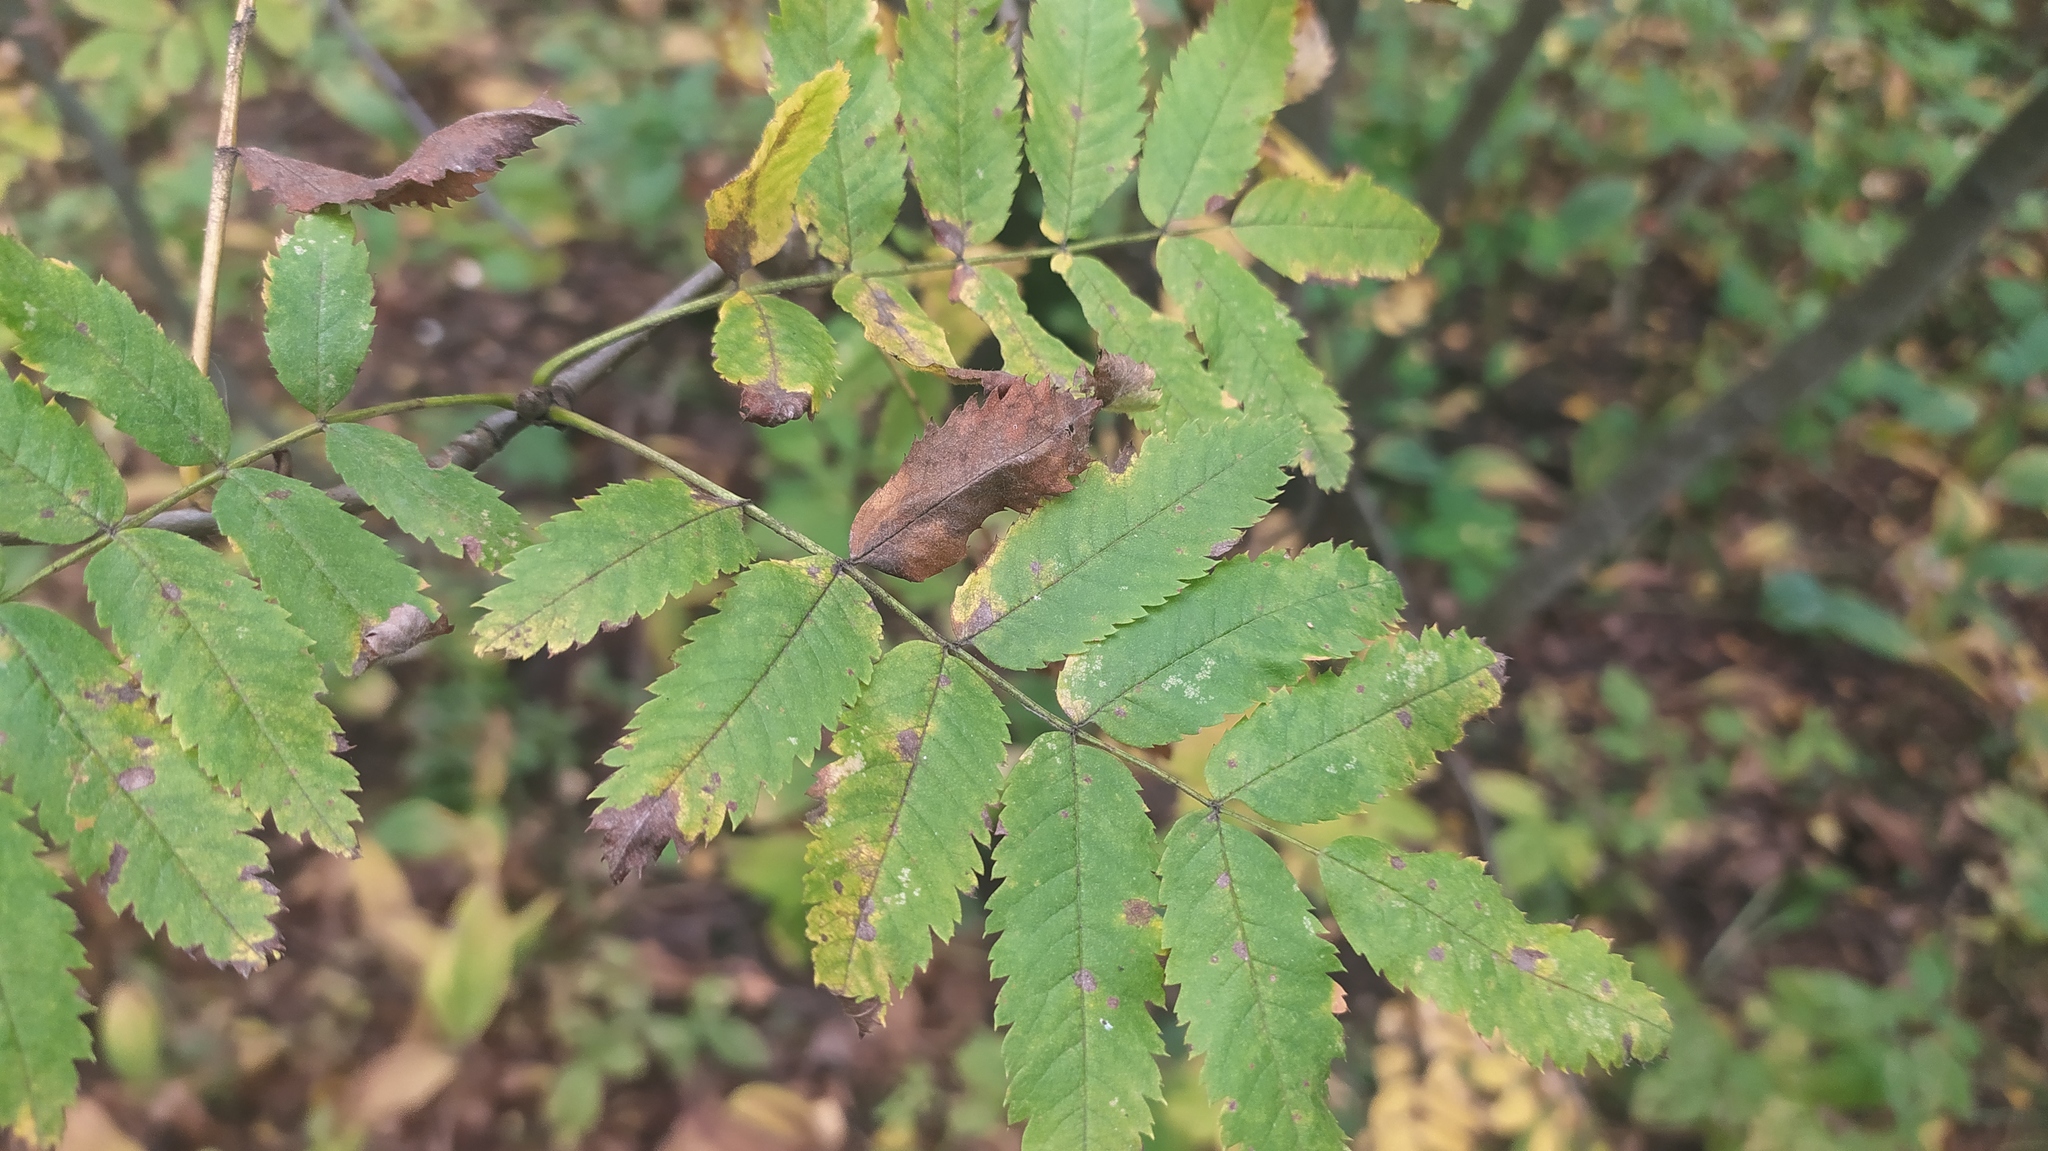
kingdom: Plantae
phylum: Tracheophyta
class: Magnoliopsida
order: Rosales
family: Rosaceae
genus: Sorbus
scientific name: Sorbus aucuparia
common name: Rowan
